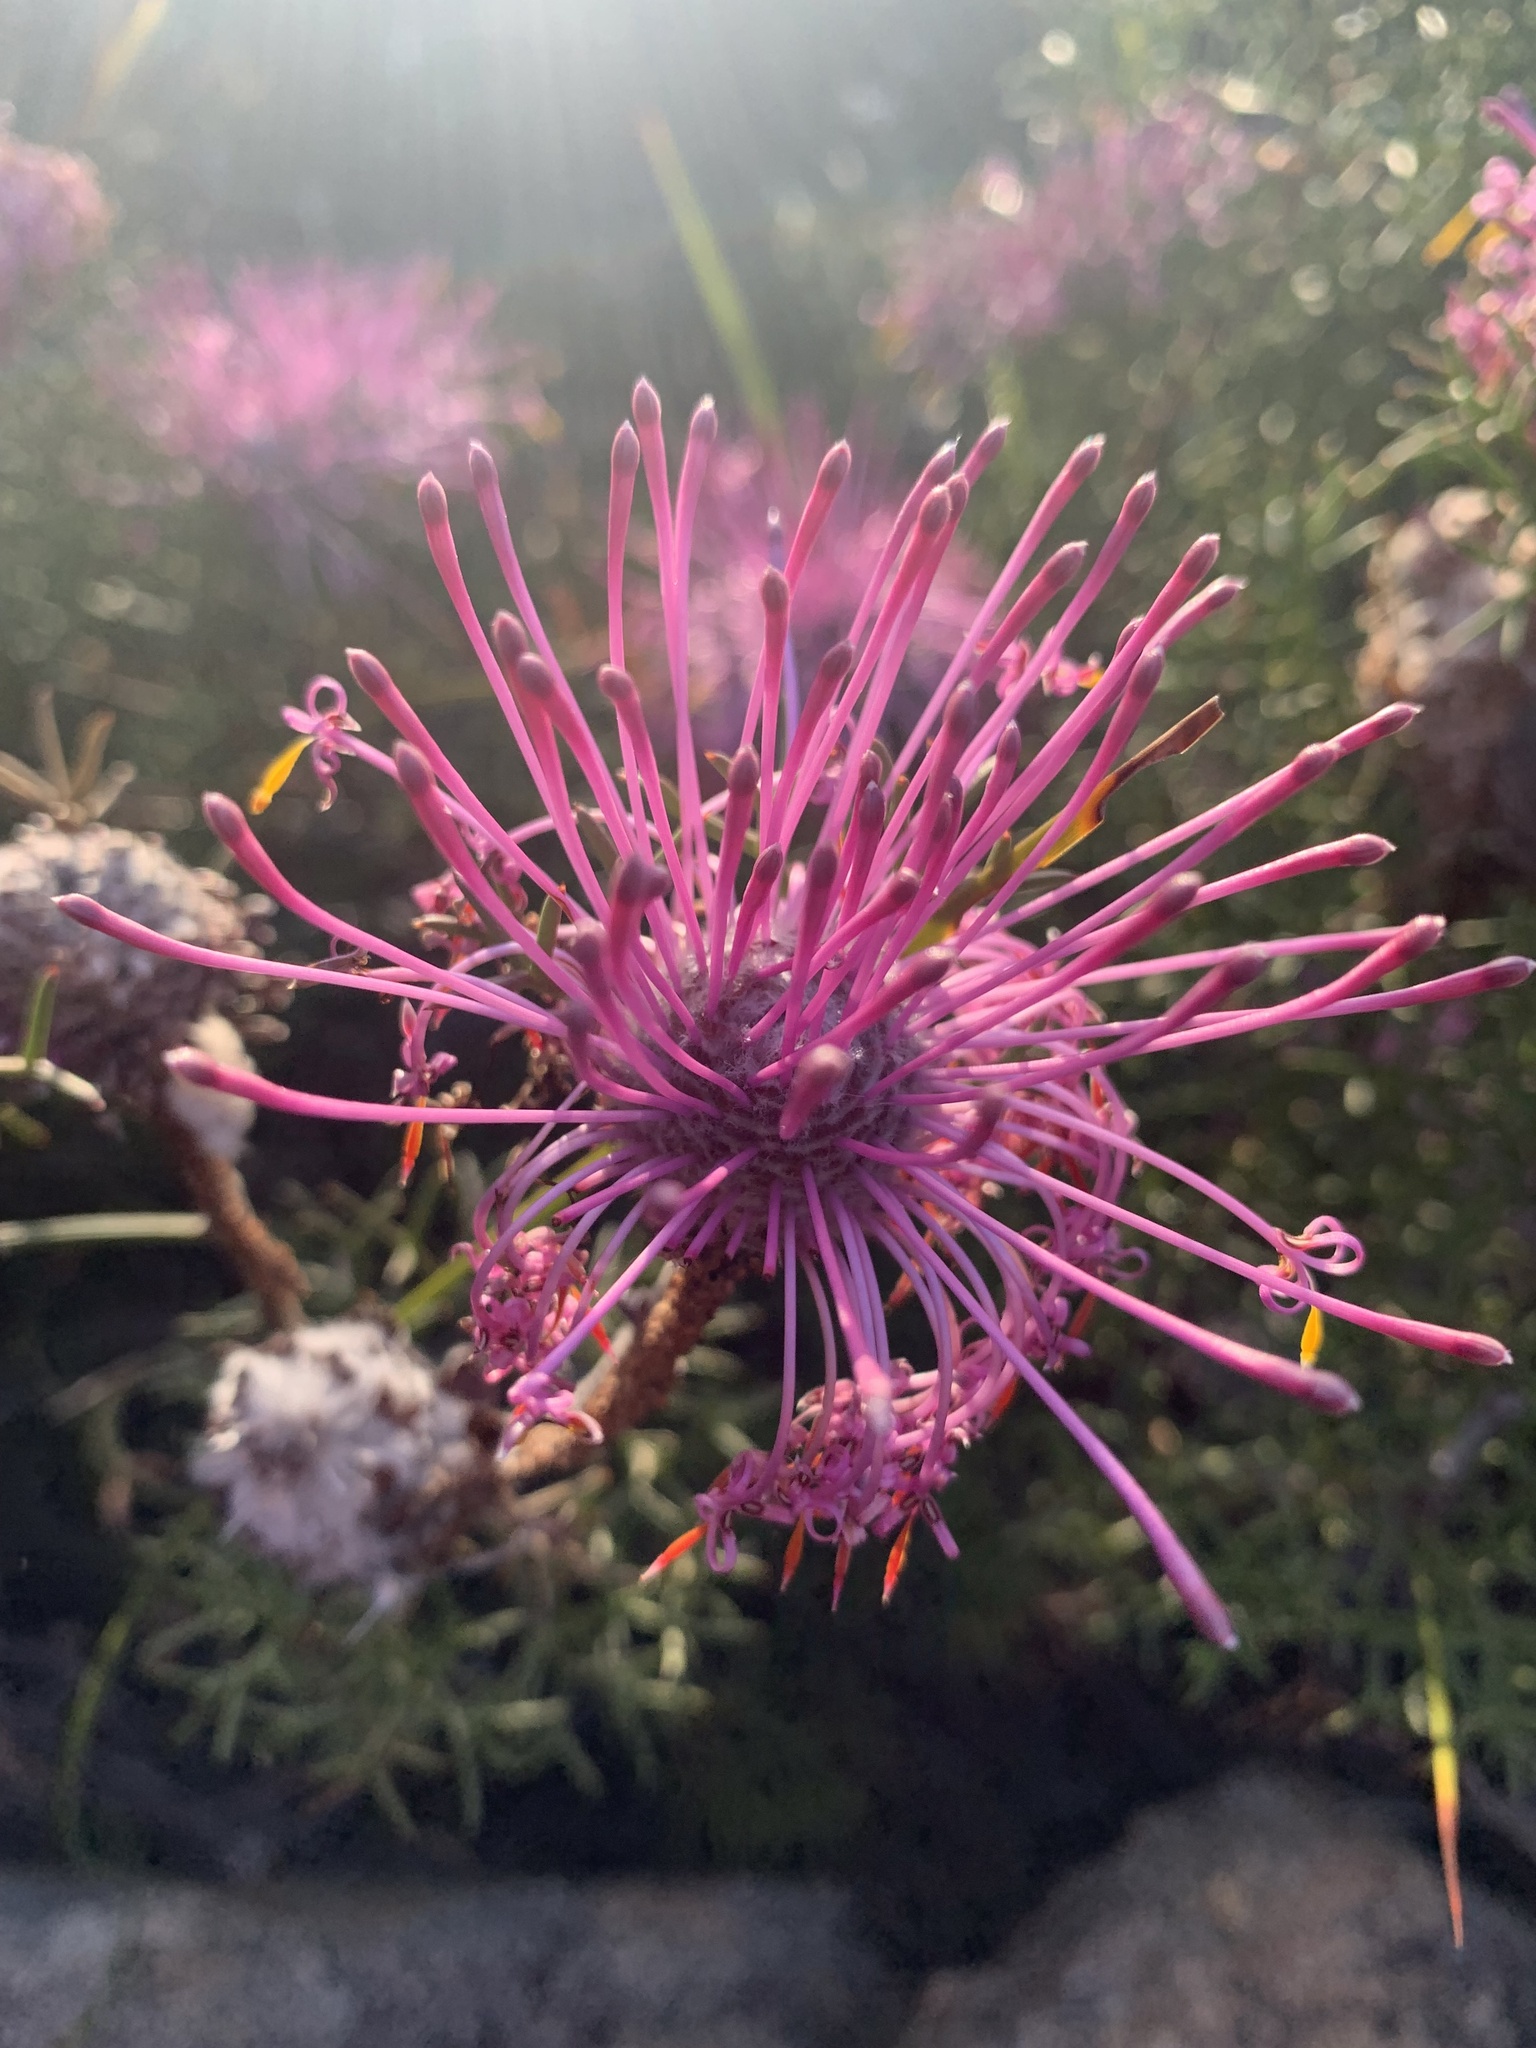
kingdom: Plantae
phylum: Tracheophyta
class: Magnoliopsida
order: Proteales
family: Proteaceae
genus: Isopogon
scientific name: Isopogon formosus
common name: Rose-coneflower
